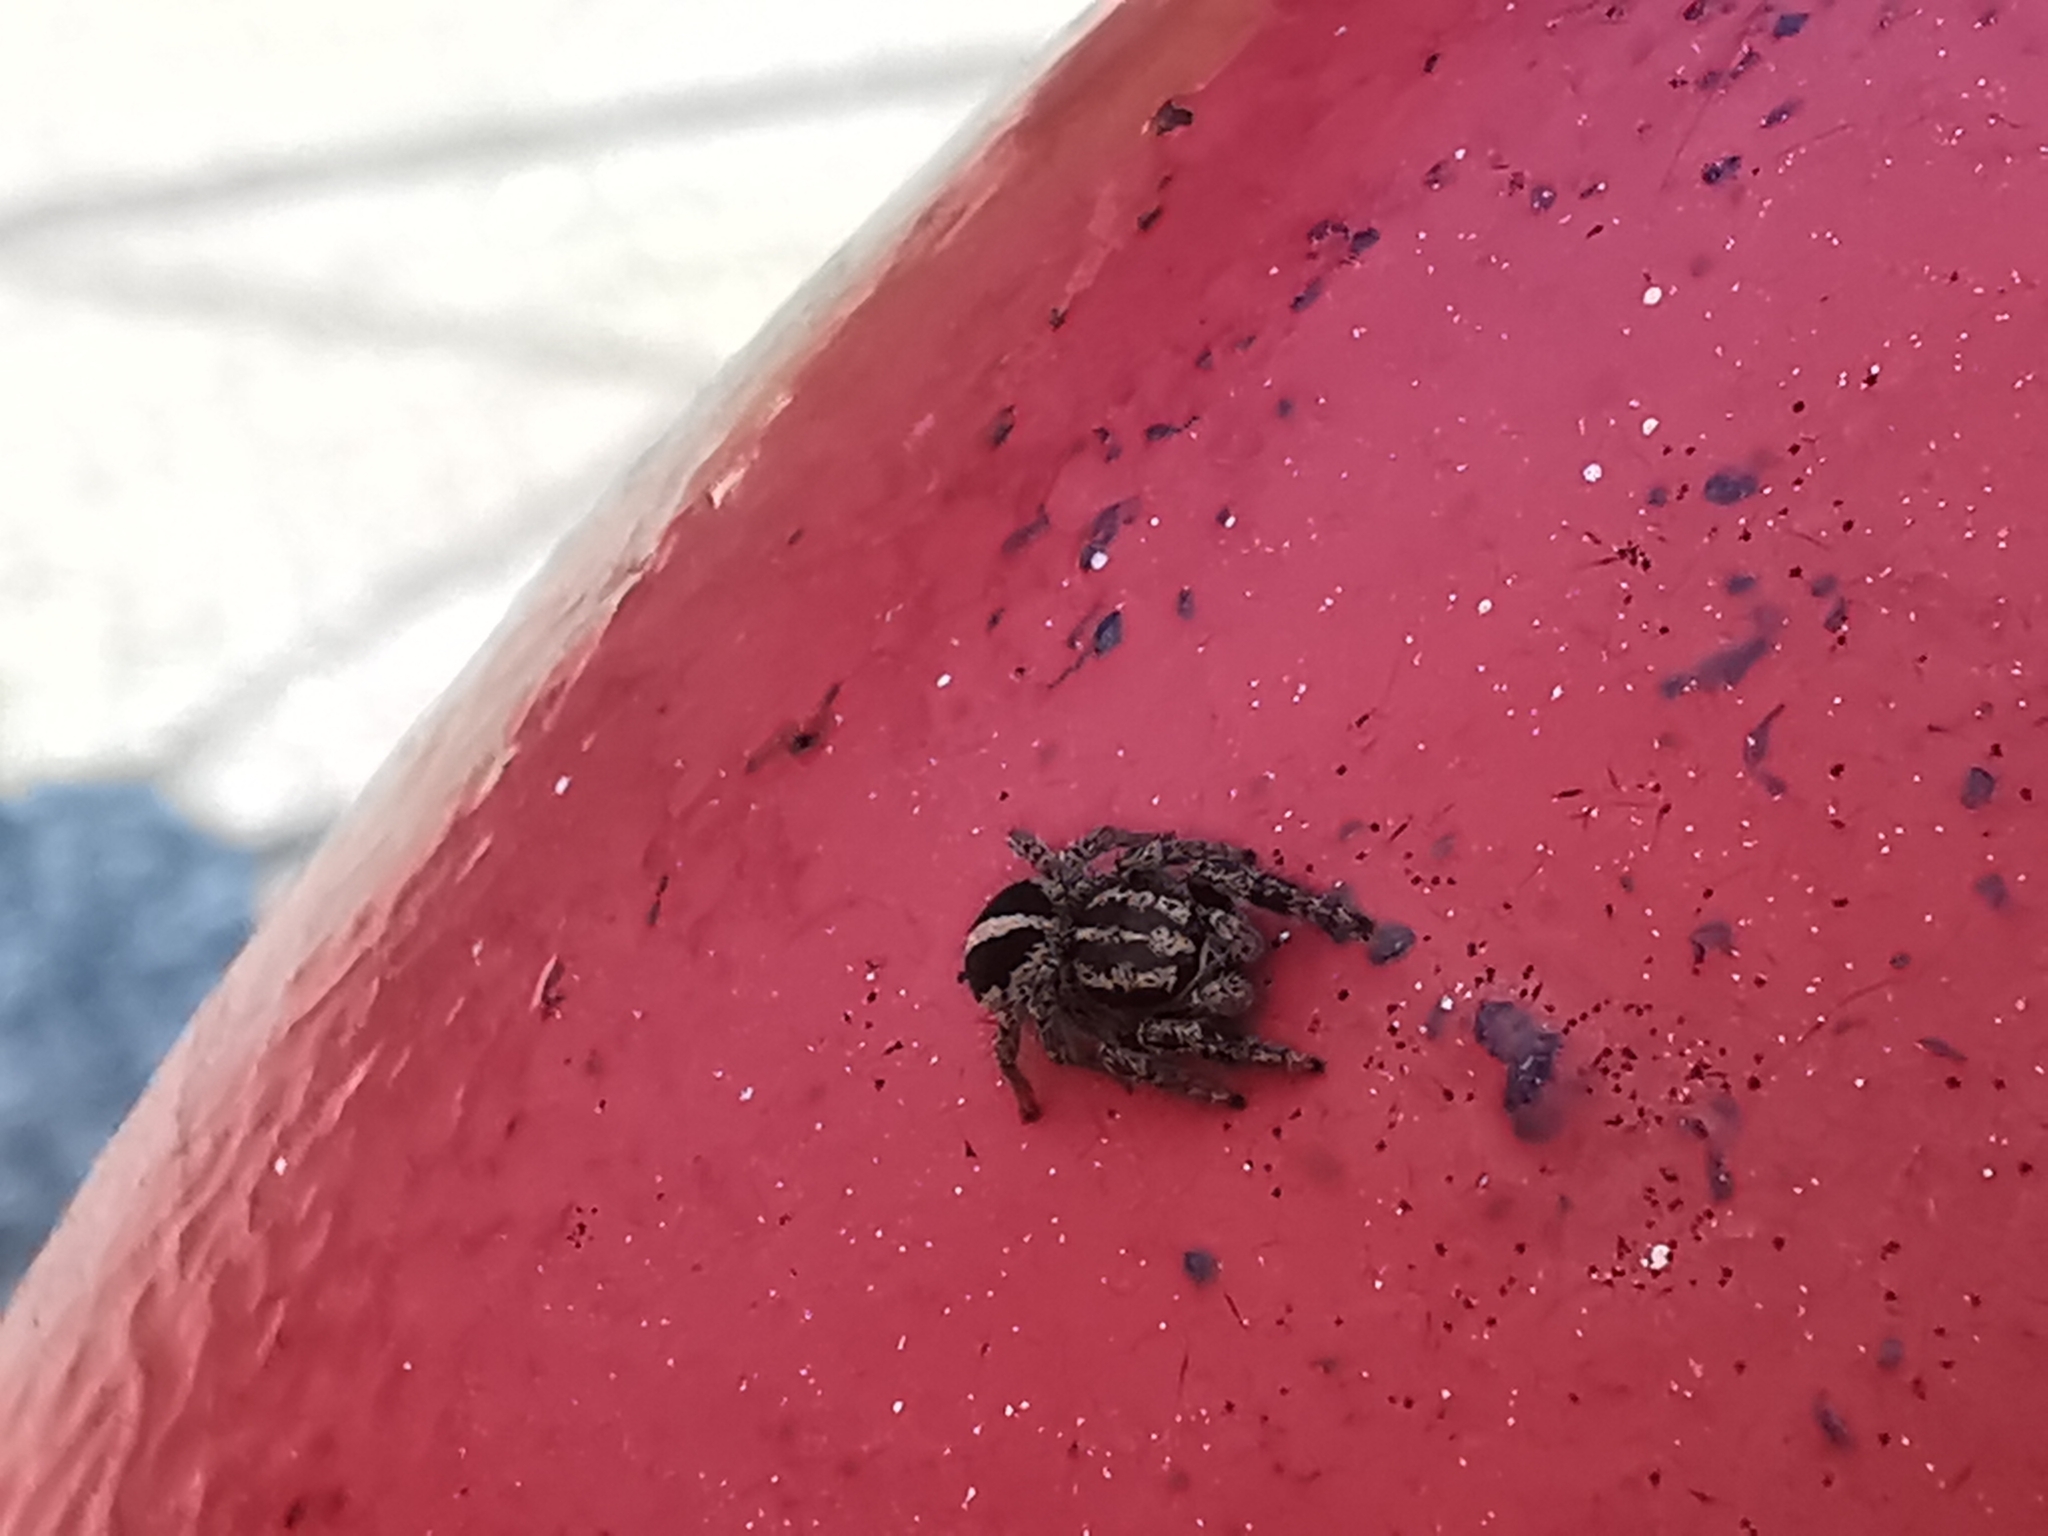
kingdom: Animalia
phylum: Arthropoda
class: Arachnida
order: Araneae
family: Salticidae
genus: Pellenes
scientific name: Pellenes diagonalis
